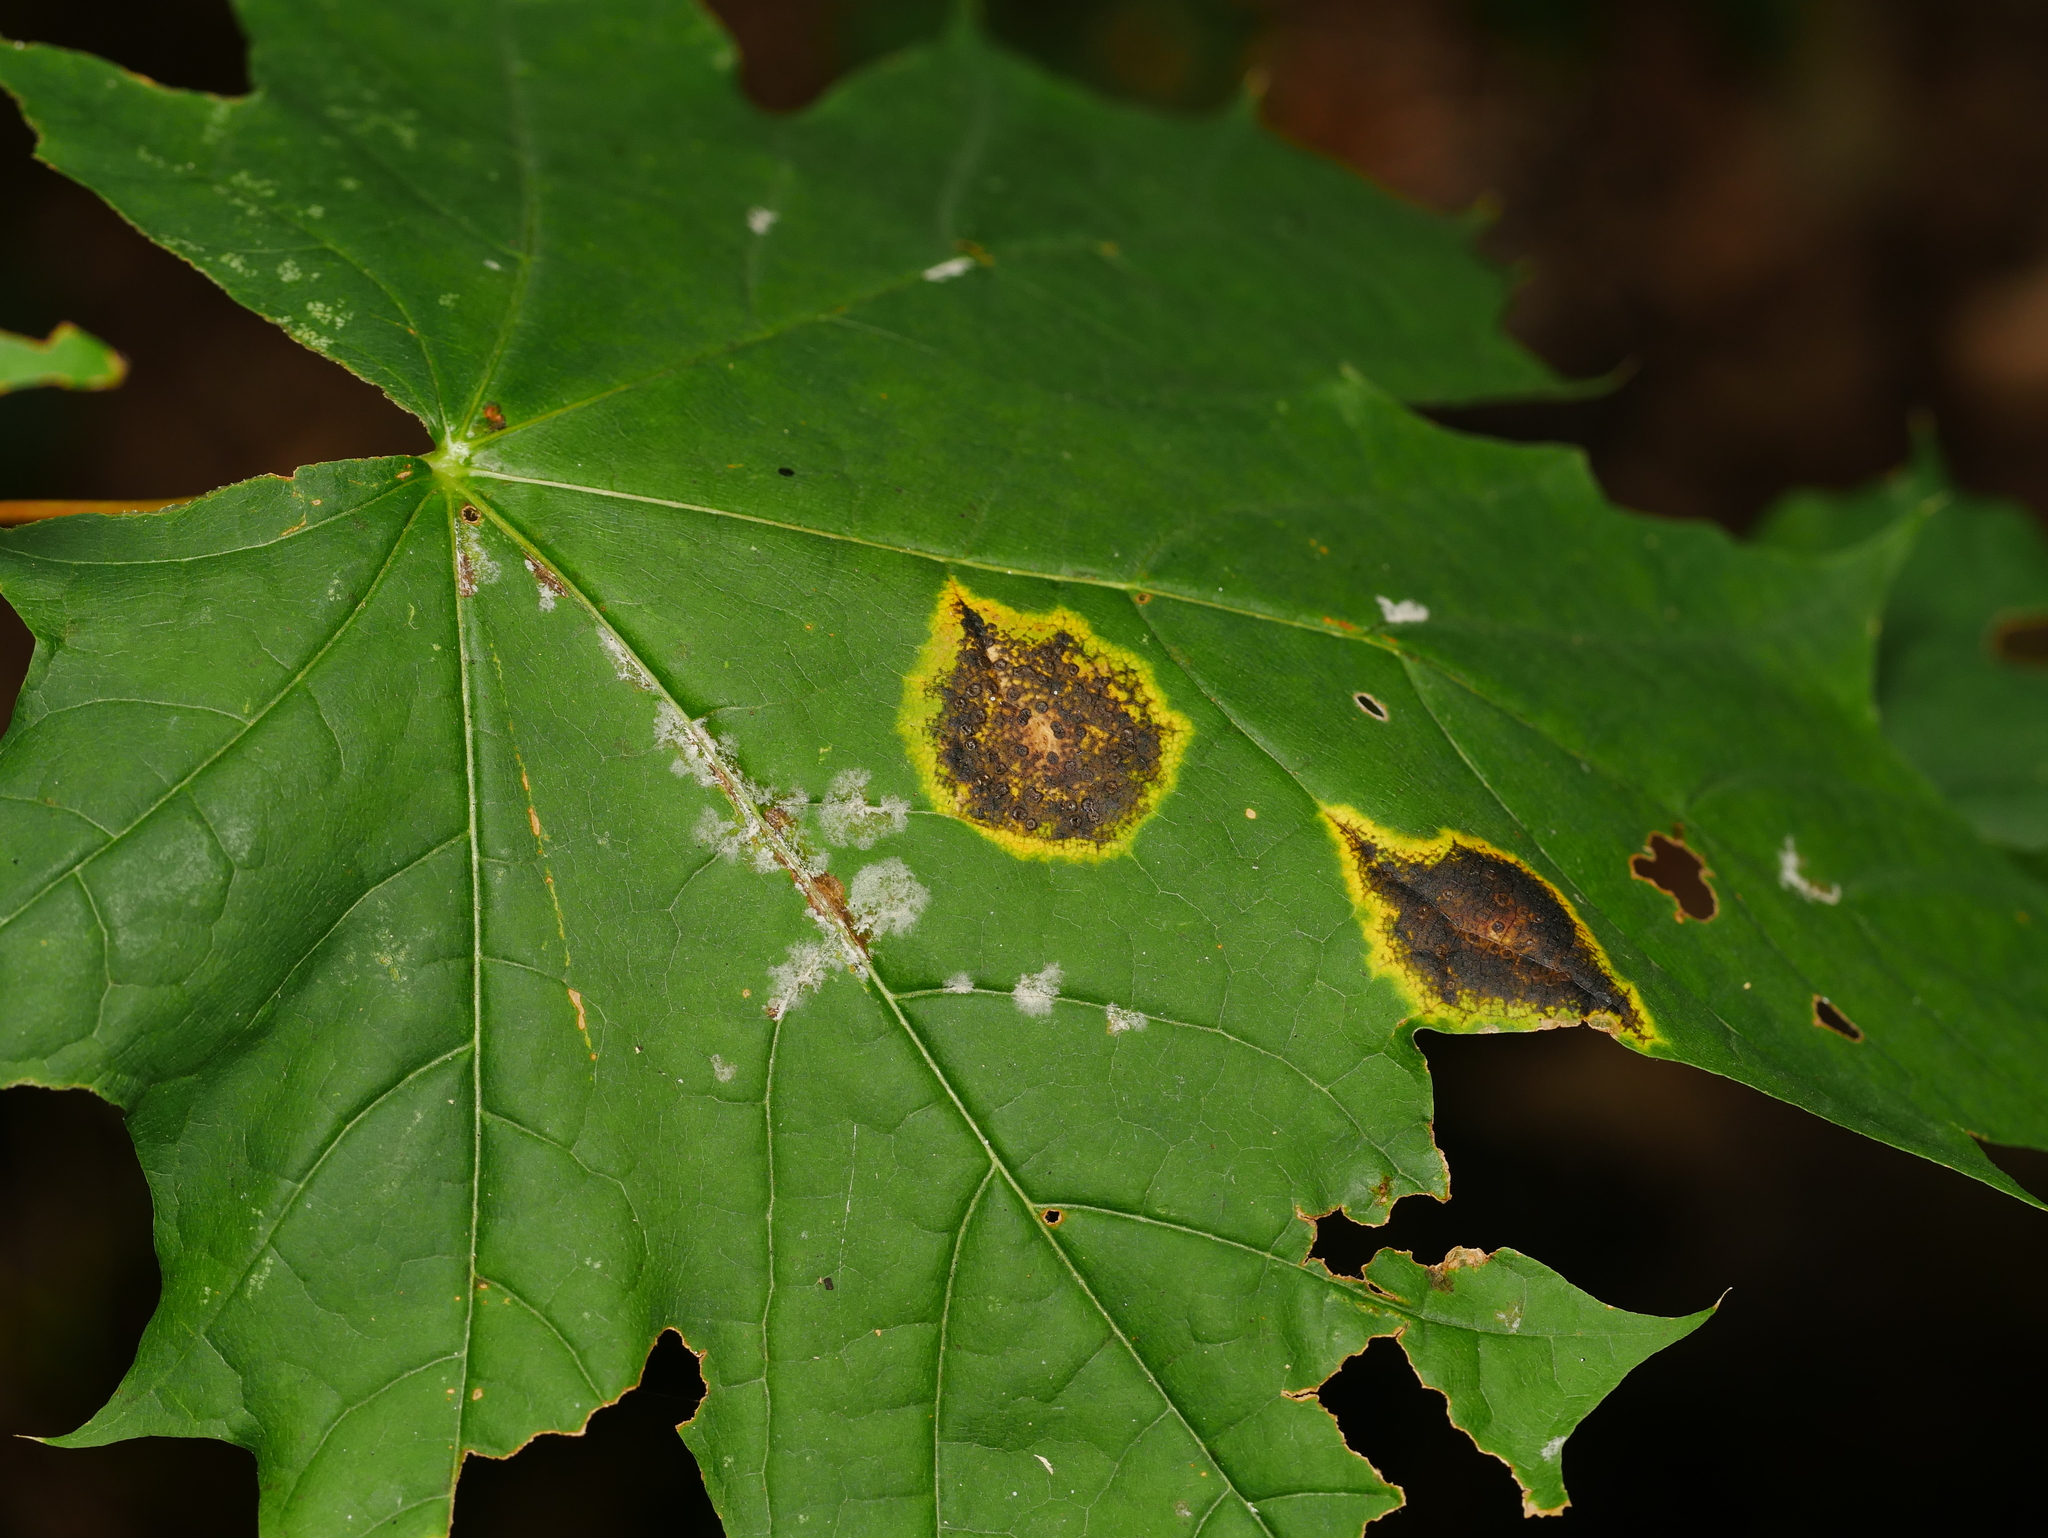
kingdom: Fungi
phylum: Ascomycota
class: Leotiomycetes
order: Rhytismatales
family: Rhytismataceae
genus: Rhytisma
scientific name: Rhytisma acerinum
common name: European tar spot
